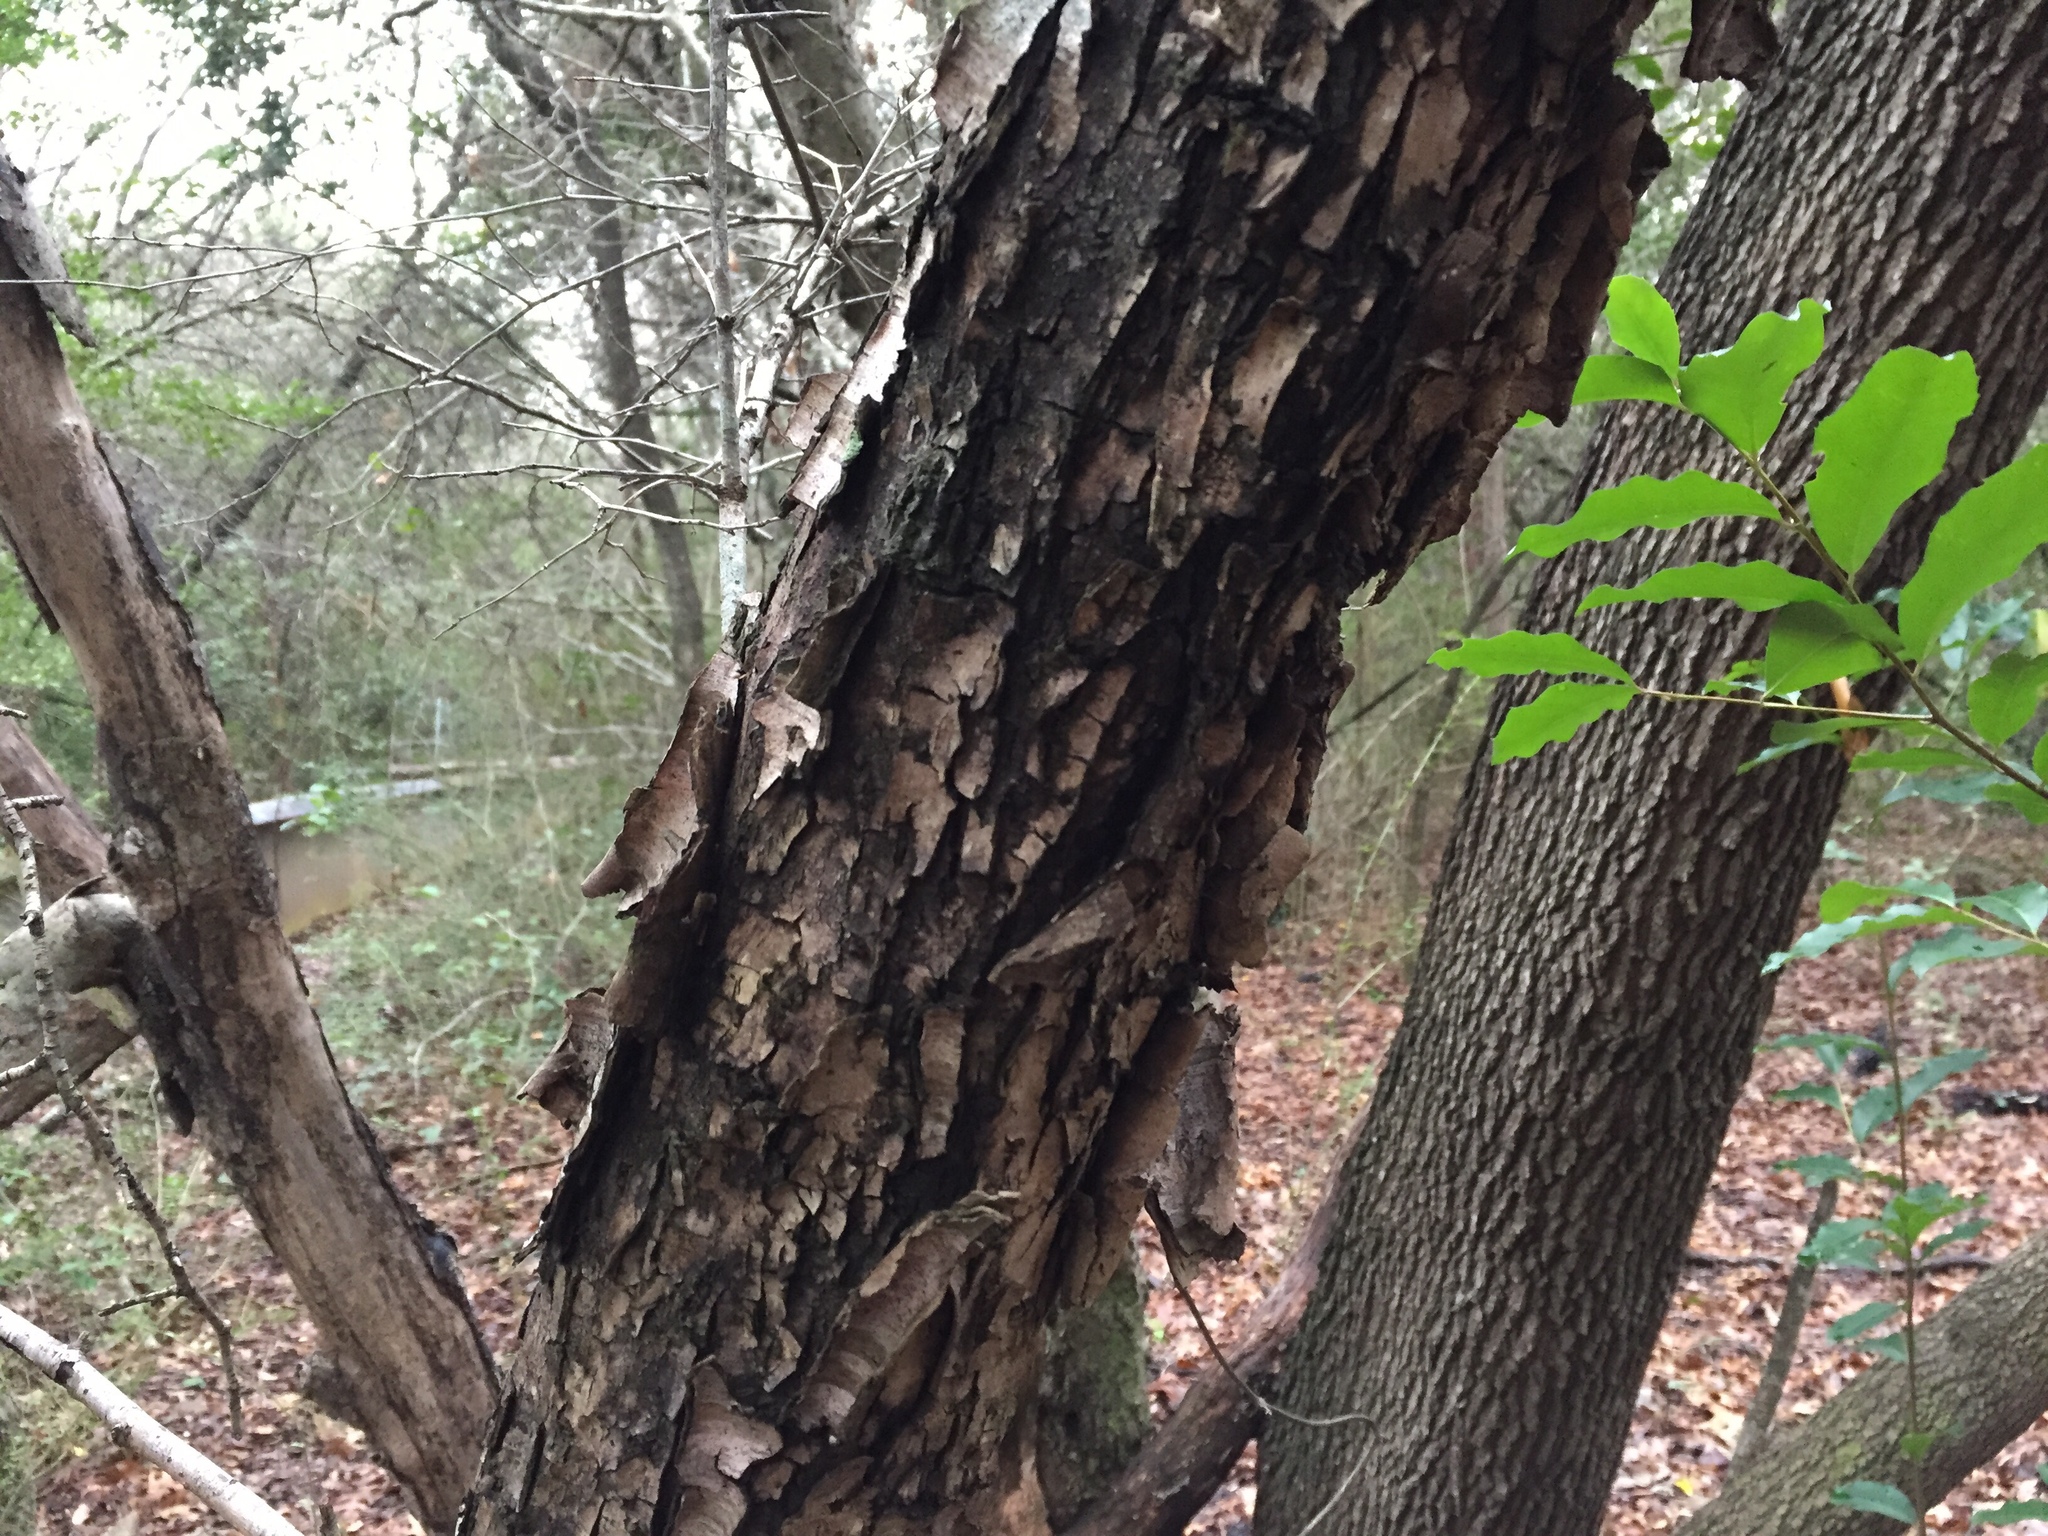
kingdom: Plantae
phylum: Tracheophyta
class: Magnoliopsida
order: Rosales
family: Rosaceae
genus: Prunus
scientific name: Prunus mexicana
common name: Mexican plum
